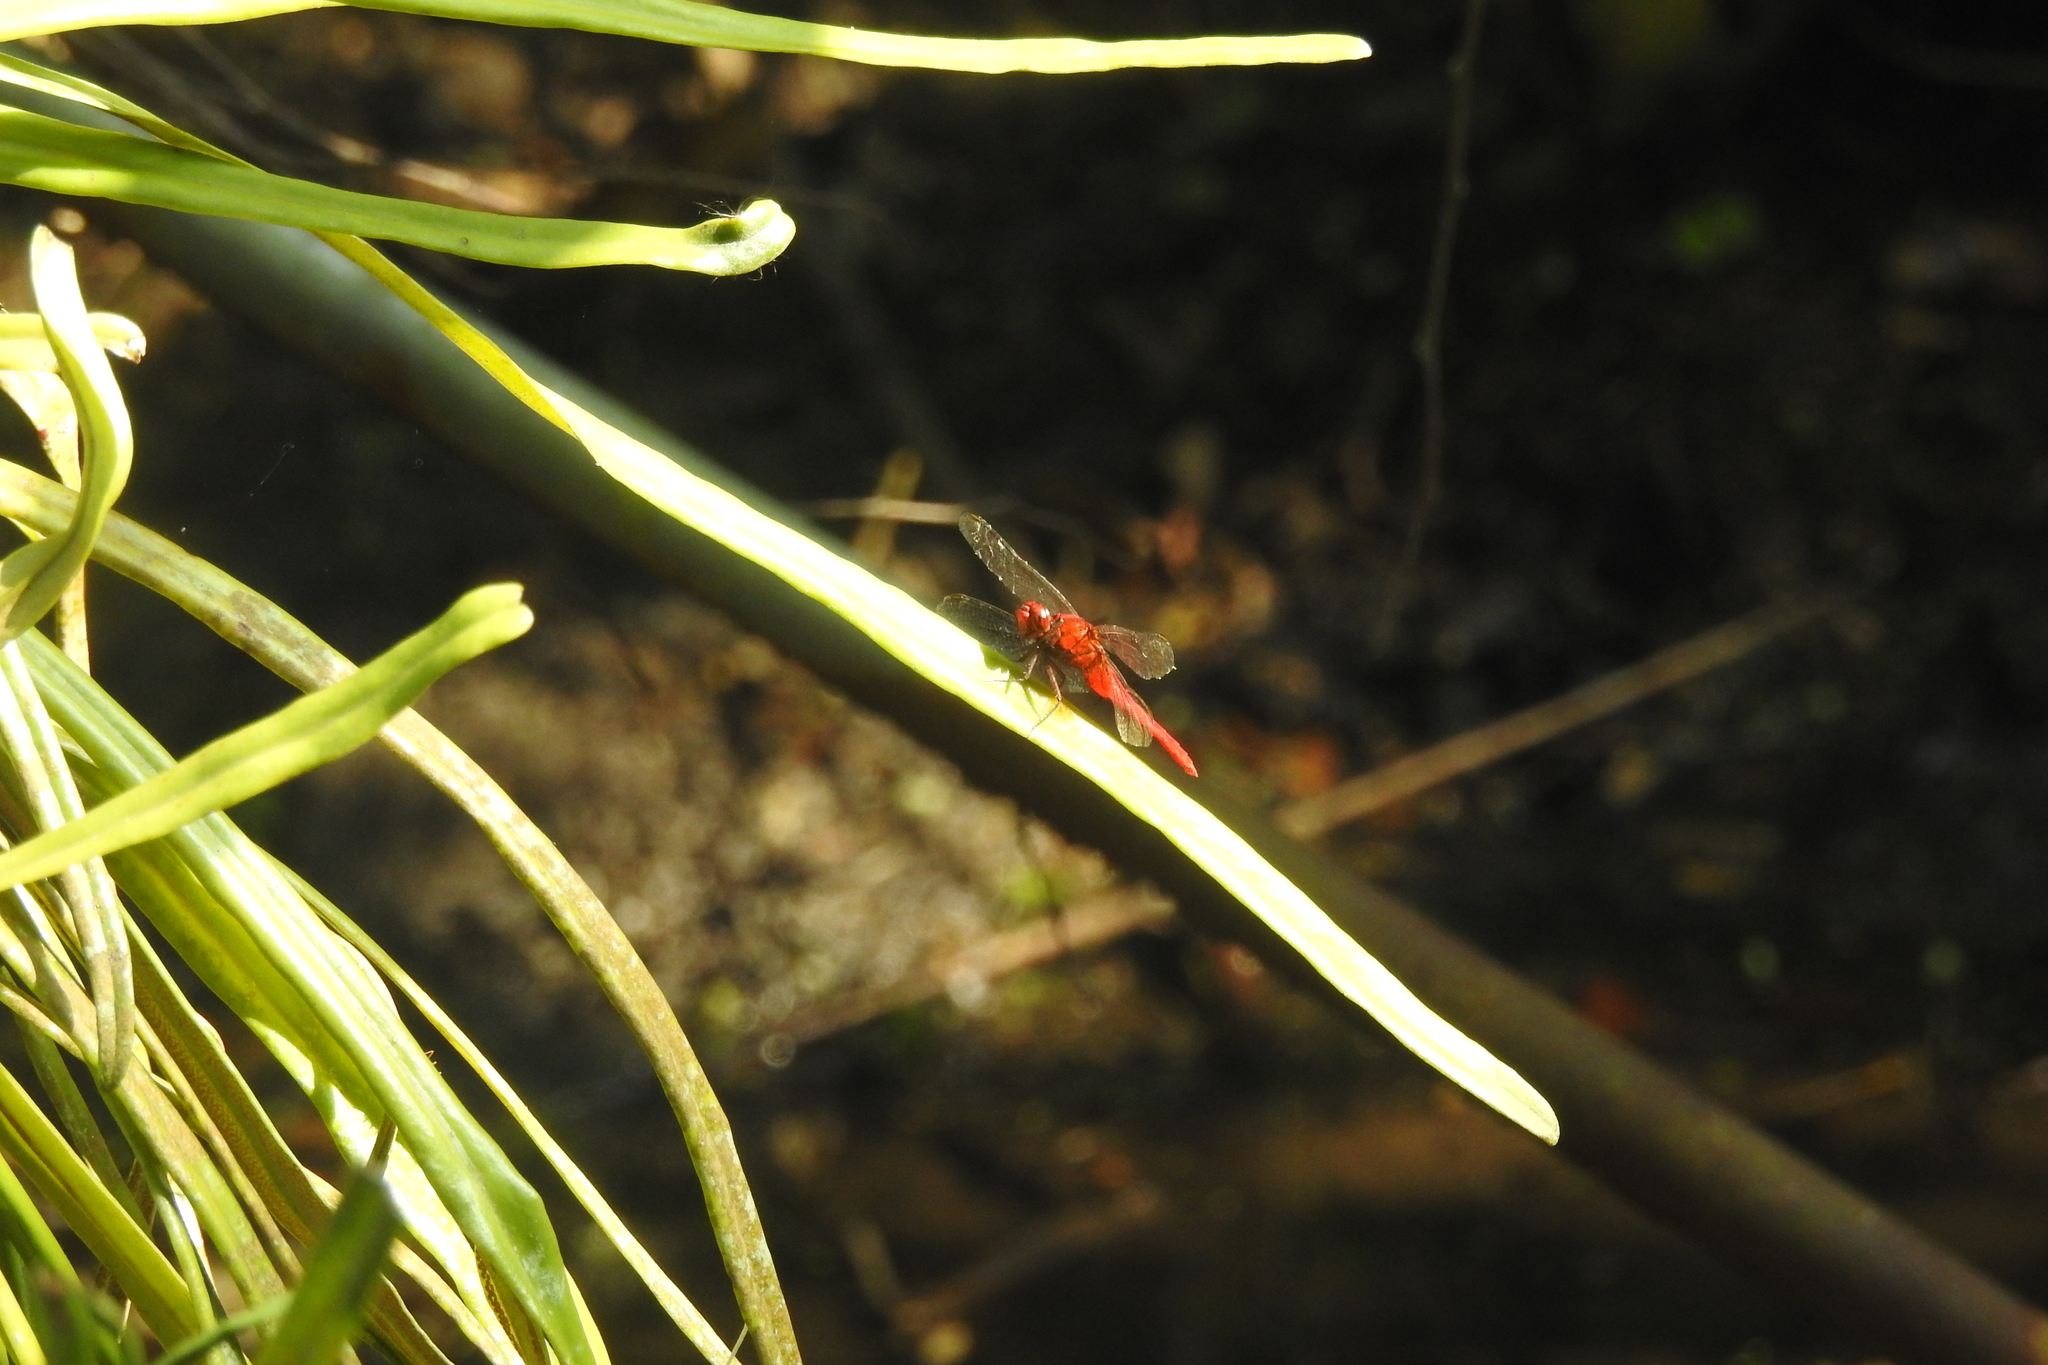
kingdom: Animalia
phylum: Arthropoda
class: Insecta
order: Odonata
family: Libellulidae
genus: Rhodothemis
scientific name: Rhodothemis rufa
